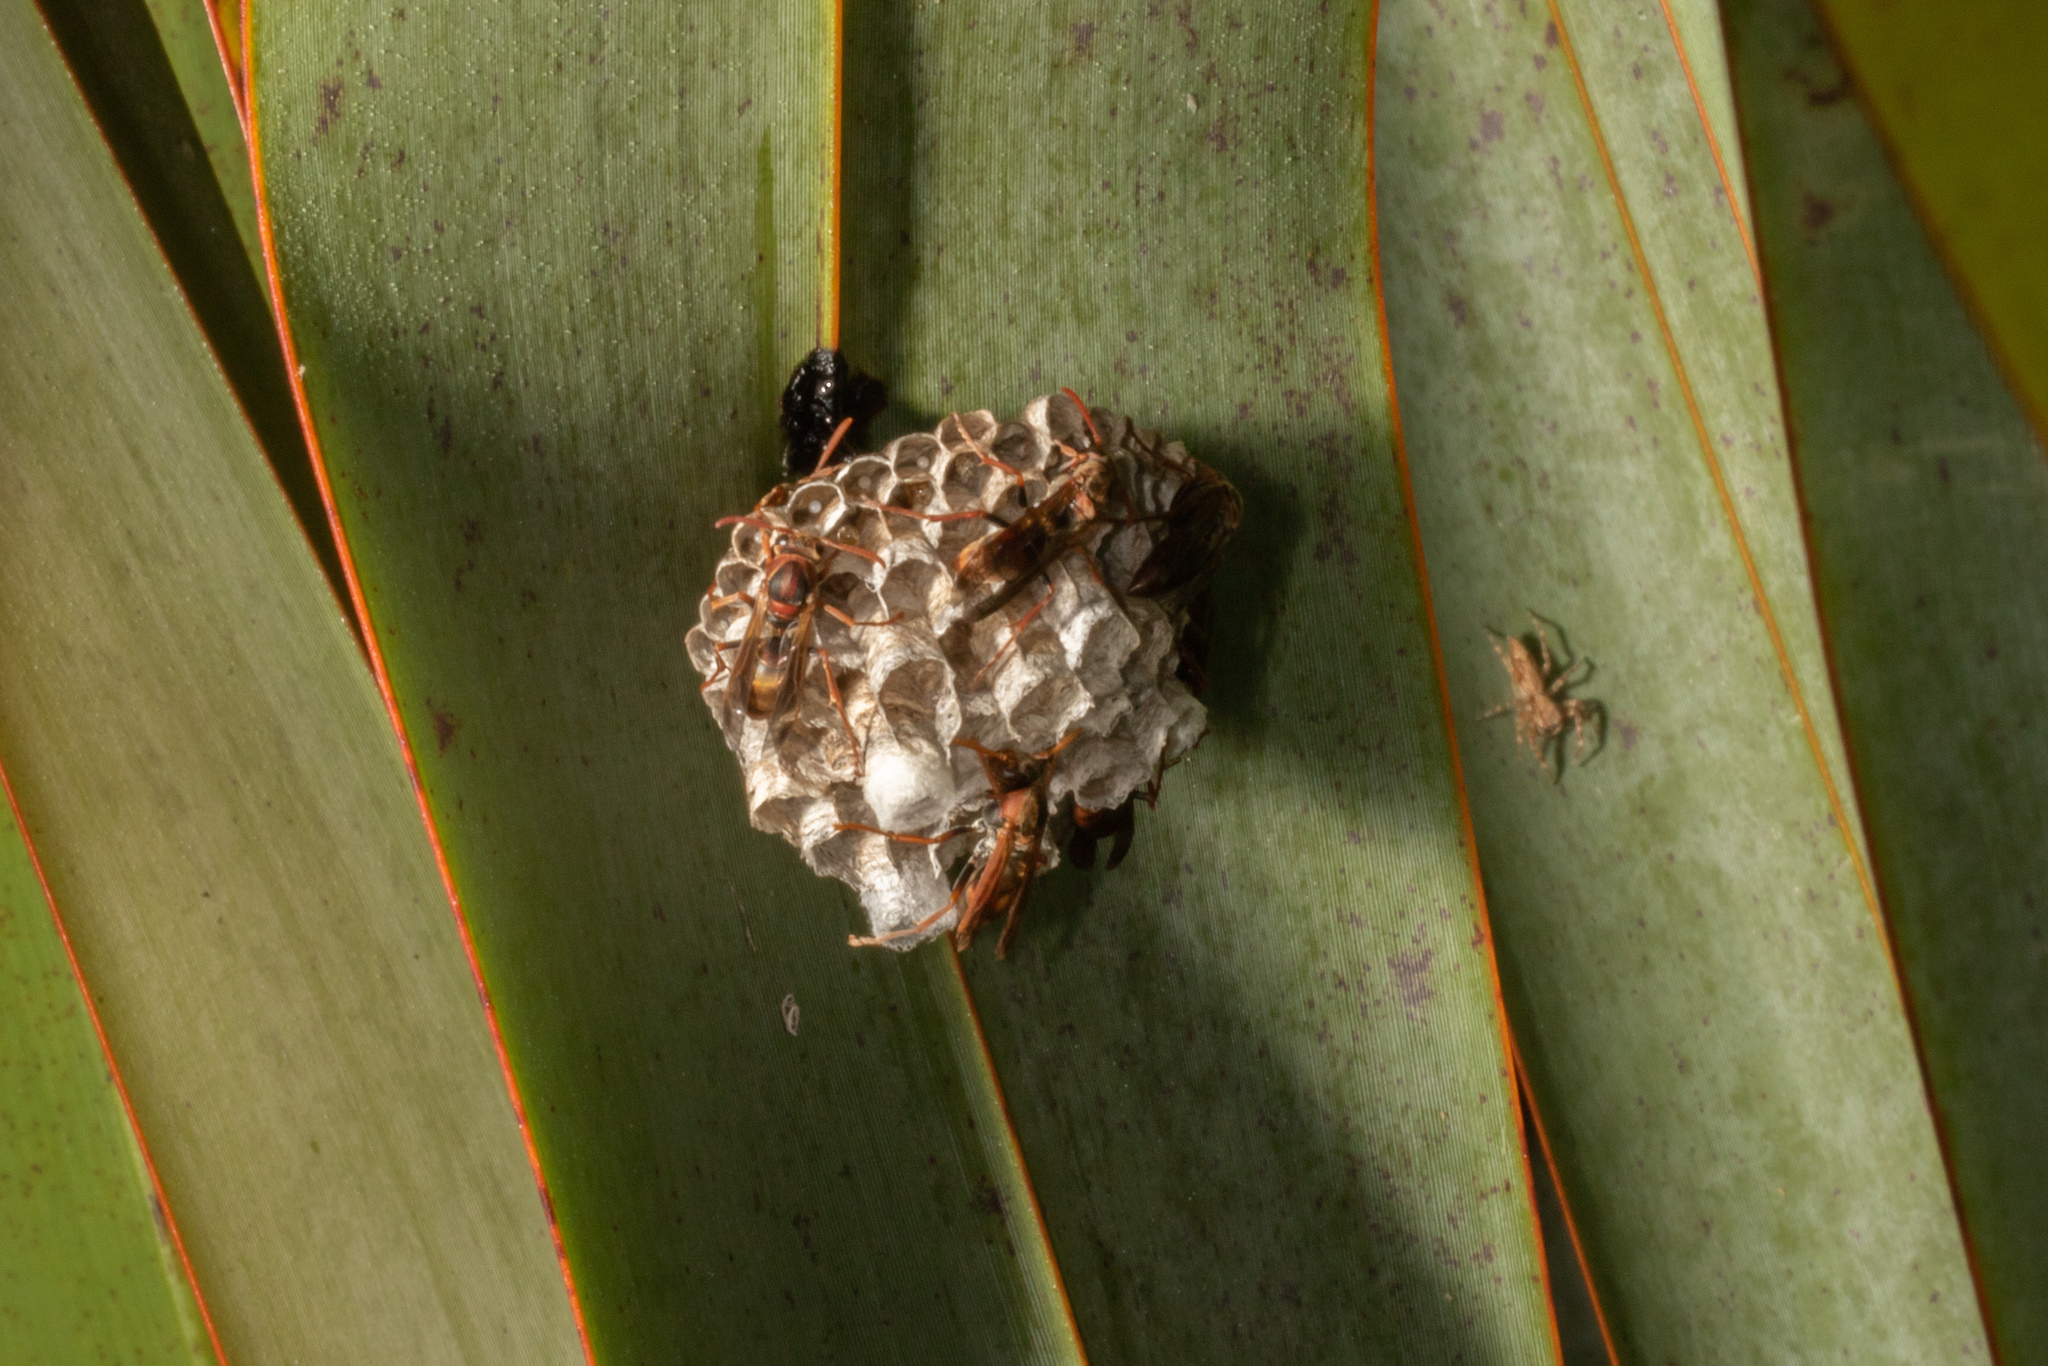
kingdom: Animalia
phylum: Arthropoda
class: Insecta
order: Hymenoptera
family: Eumenidae
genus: Polistes
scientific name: Polistes humilis
